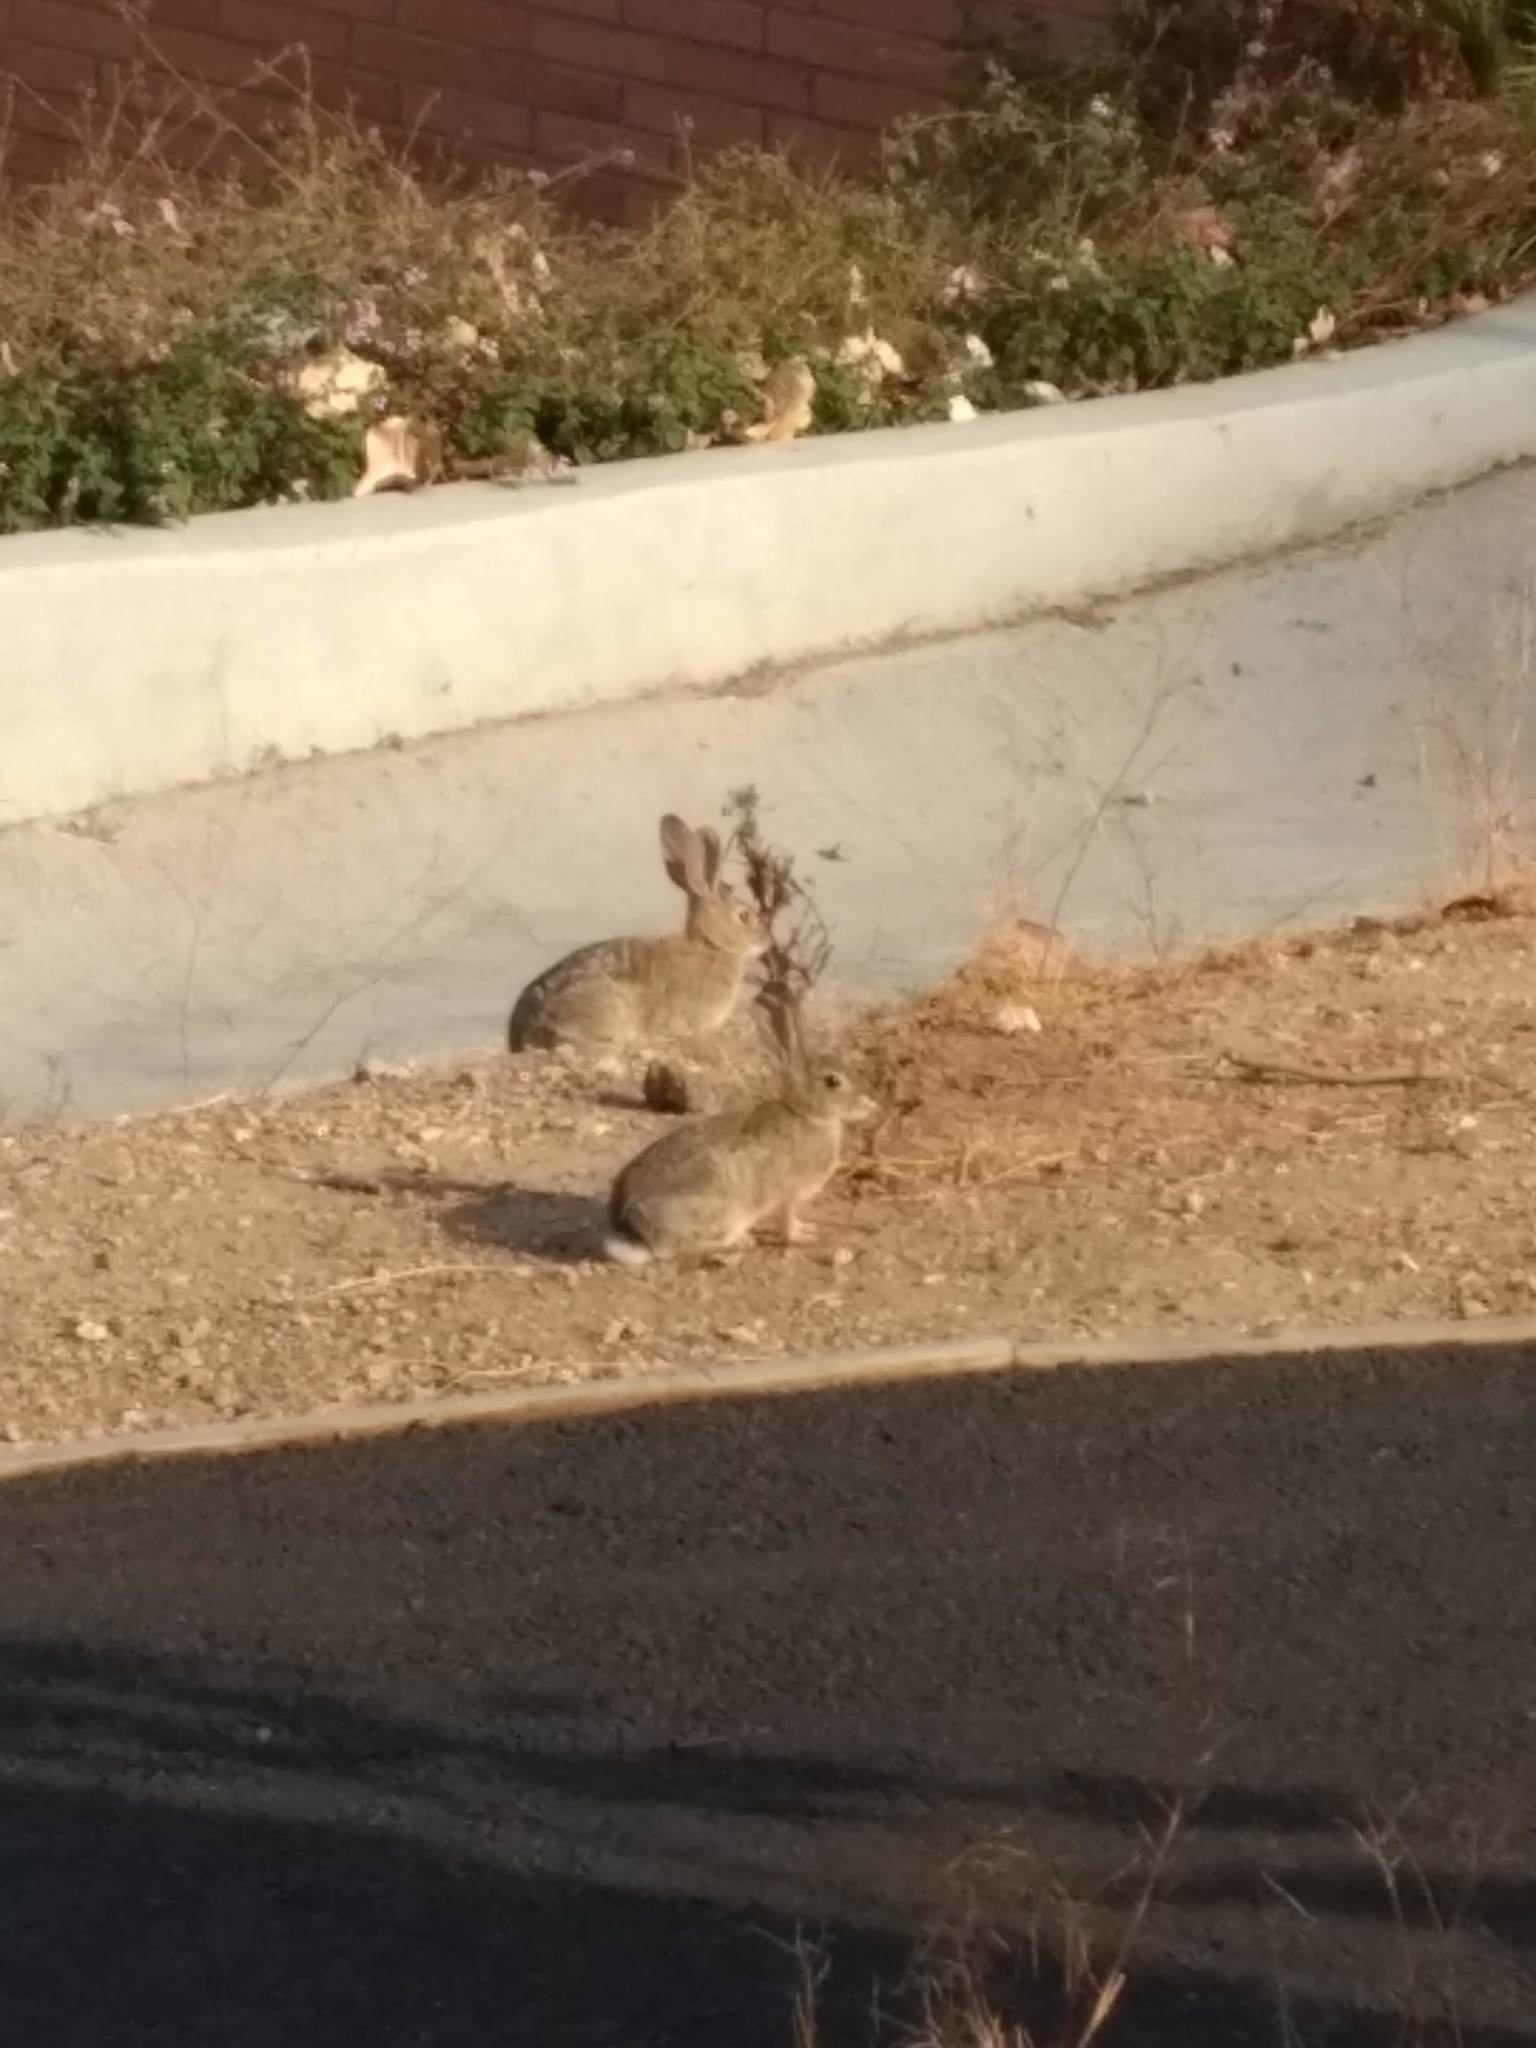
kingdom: Animalia
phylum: Chordata
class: Mammalia
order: Lagomorpha
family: Leporidae
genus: Sylvilagus
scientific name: Sylvilagus audubonii
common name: Desert cottontail
